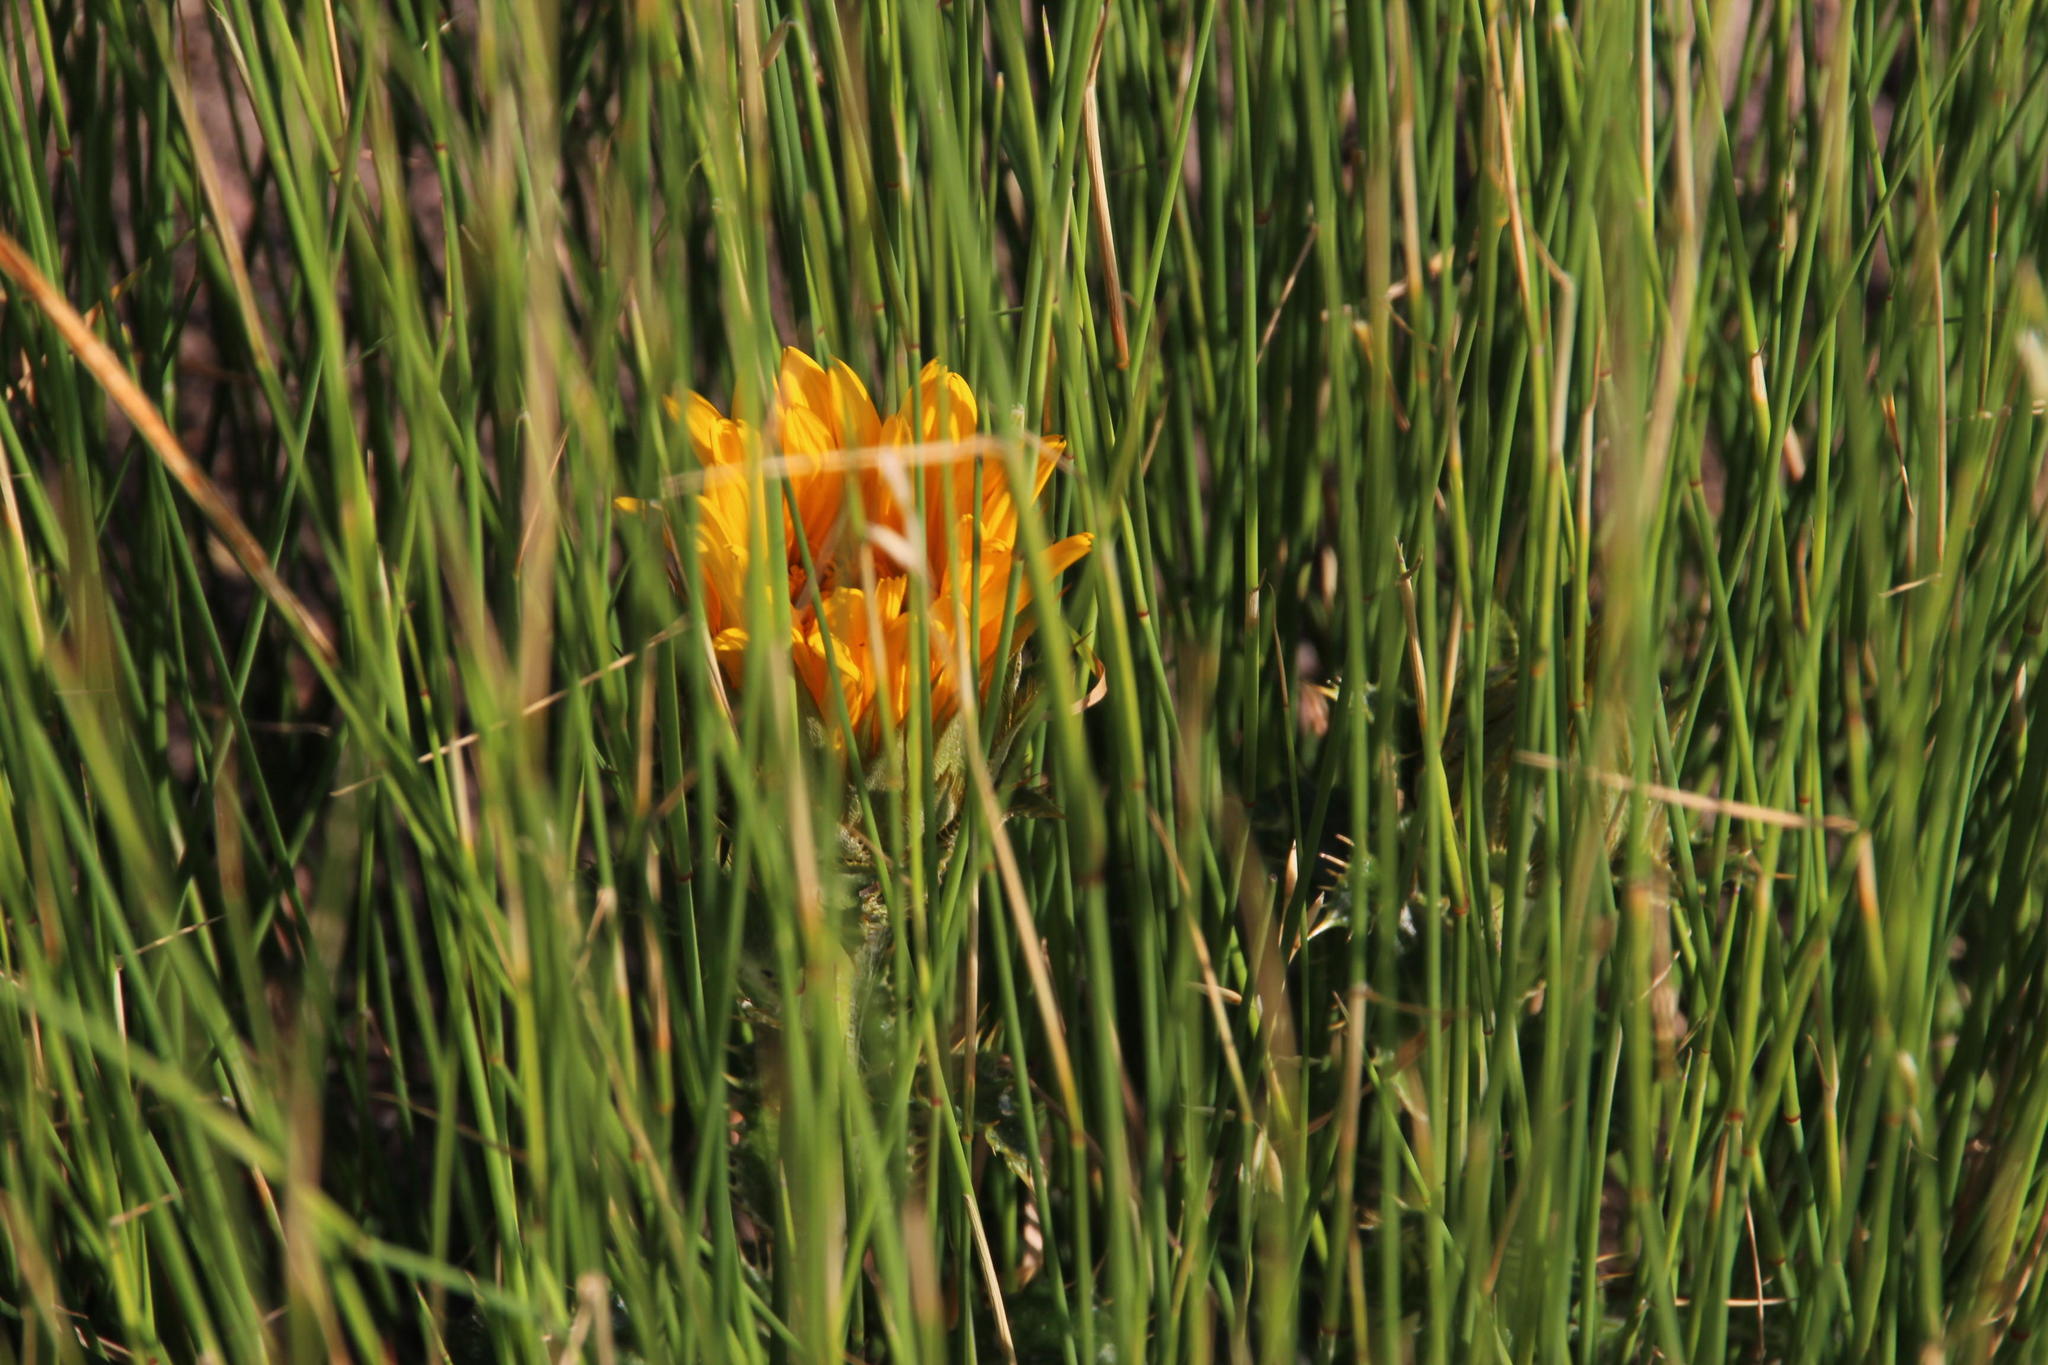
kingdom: Plantae
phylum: Tracheophyta
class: Magnoliopsida
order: Asterales
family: Asteraceae
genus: Berkheya
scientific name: Berkheya armata
